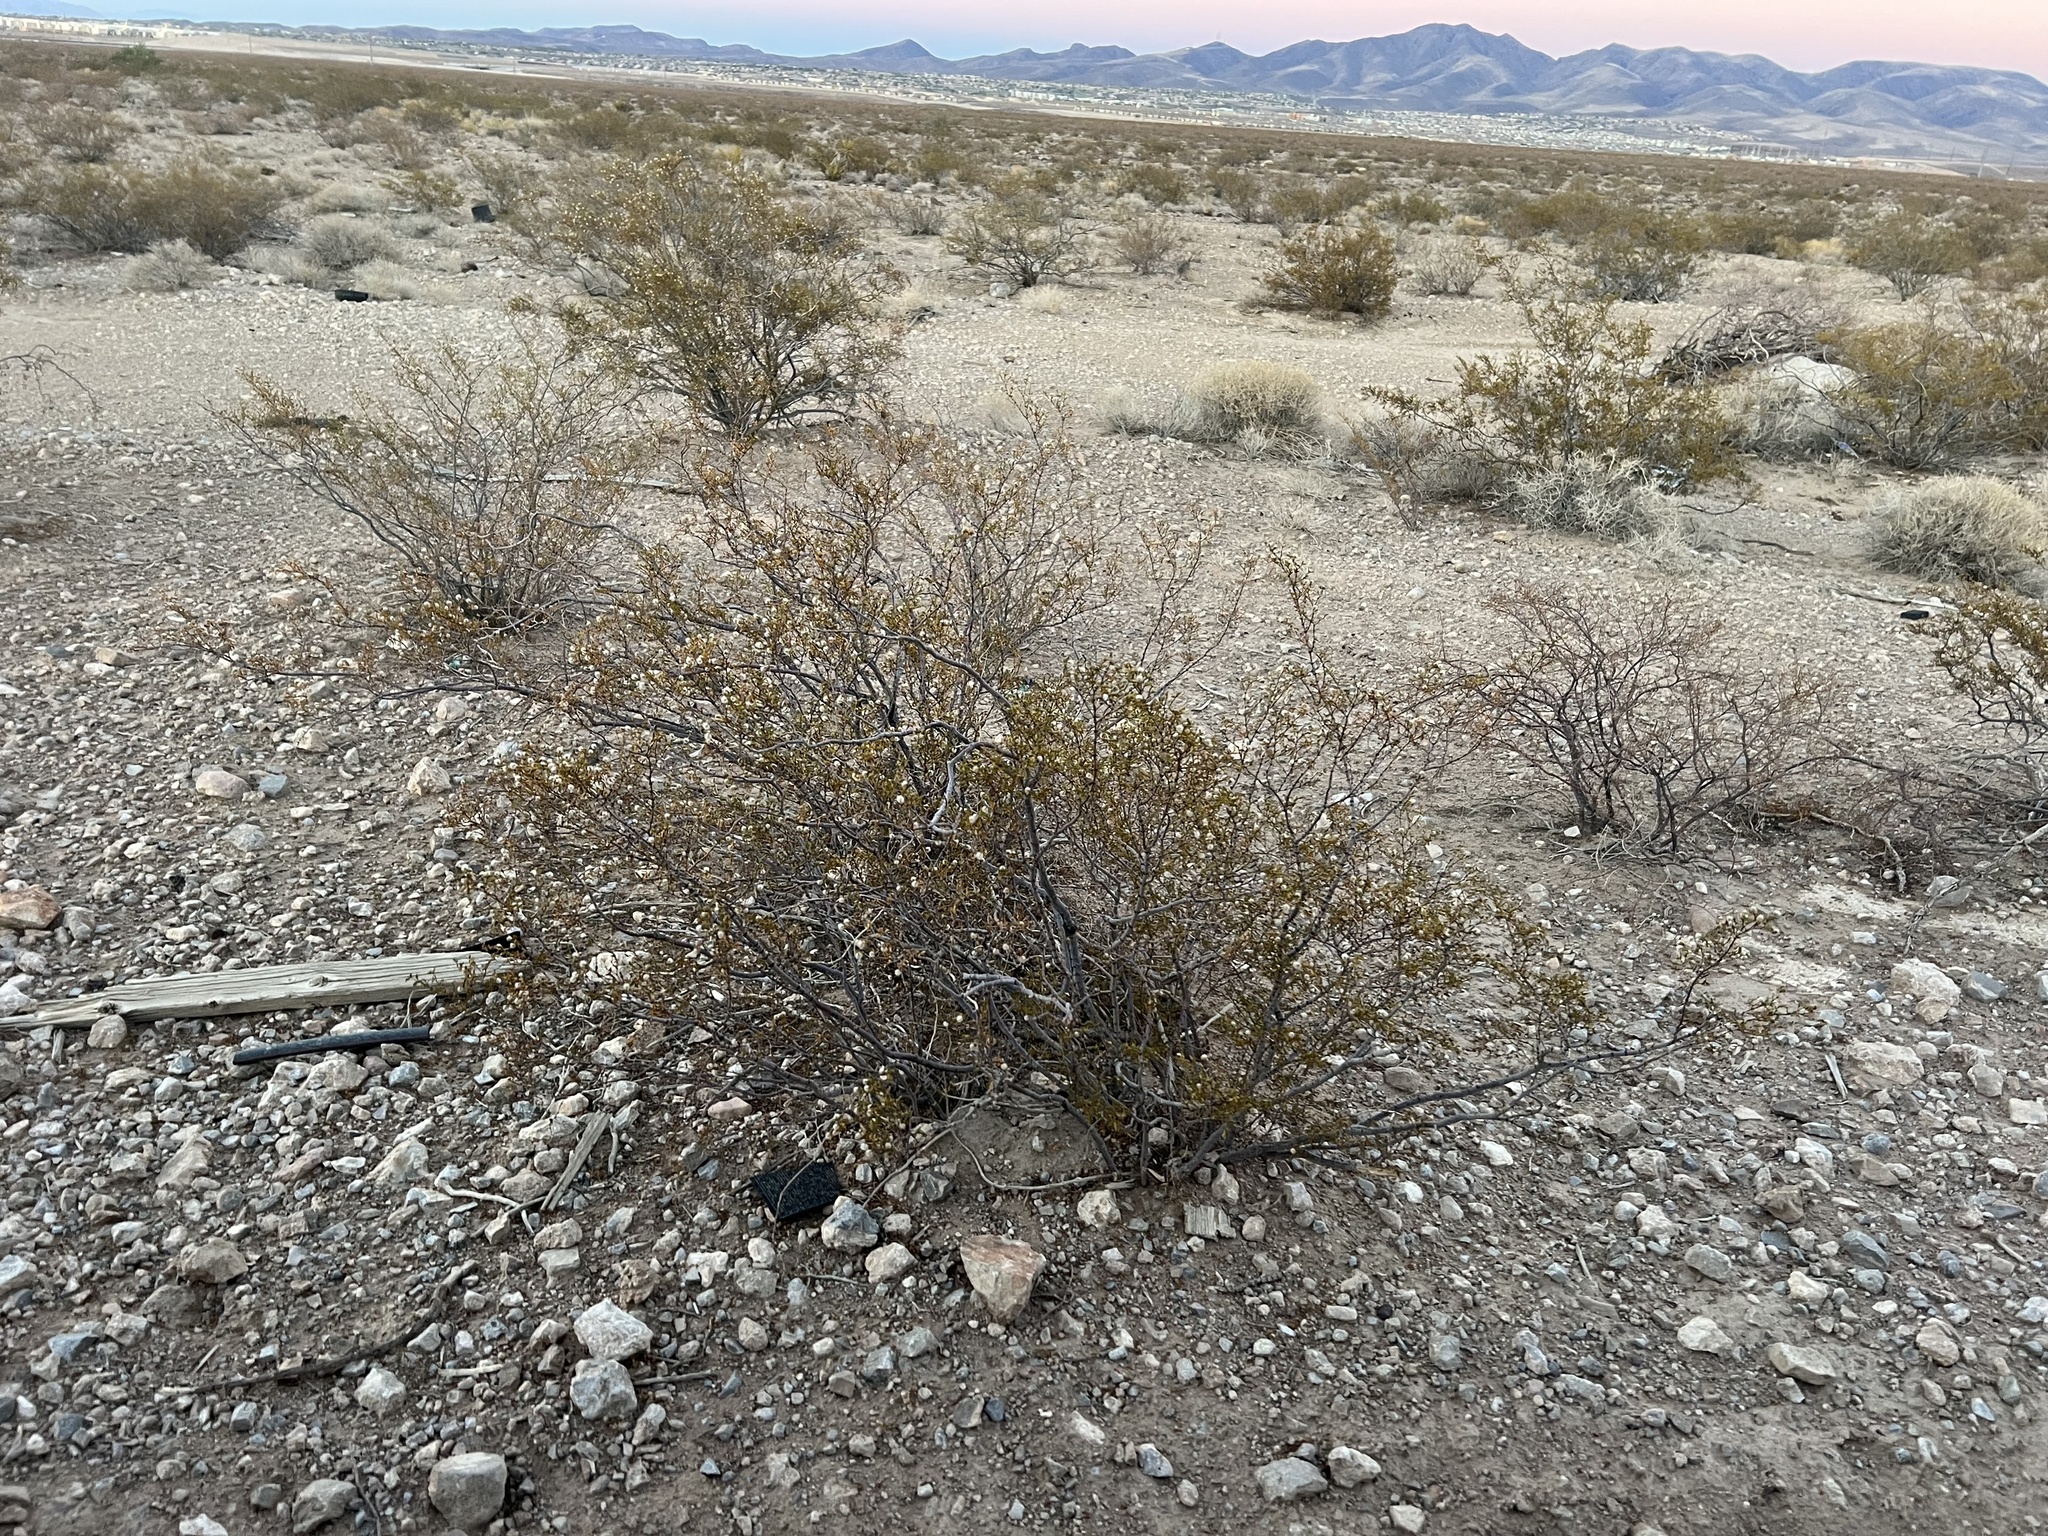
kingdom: Plantae
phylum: Tracheophyta
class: Magnoliopsida
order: Zygophyllales
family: Zygophyllaceae
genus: Larrea
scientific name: Larrea tridentata
